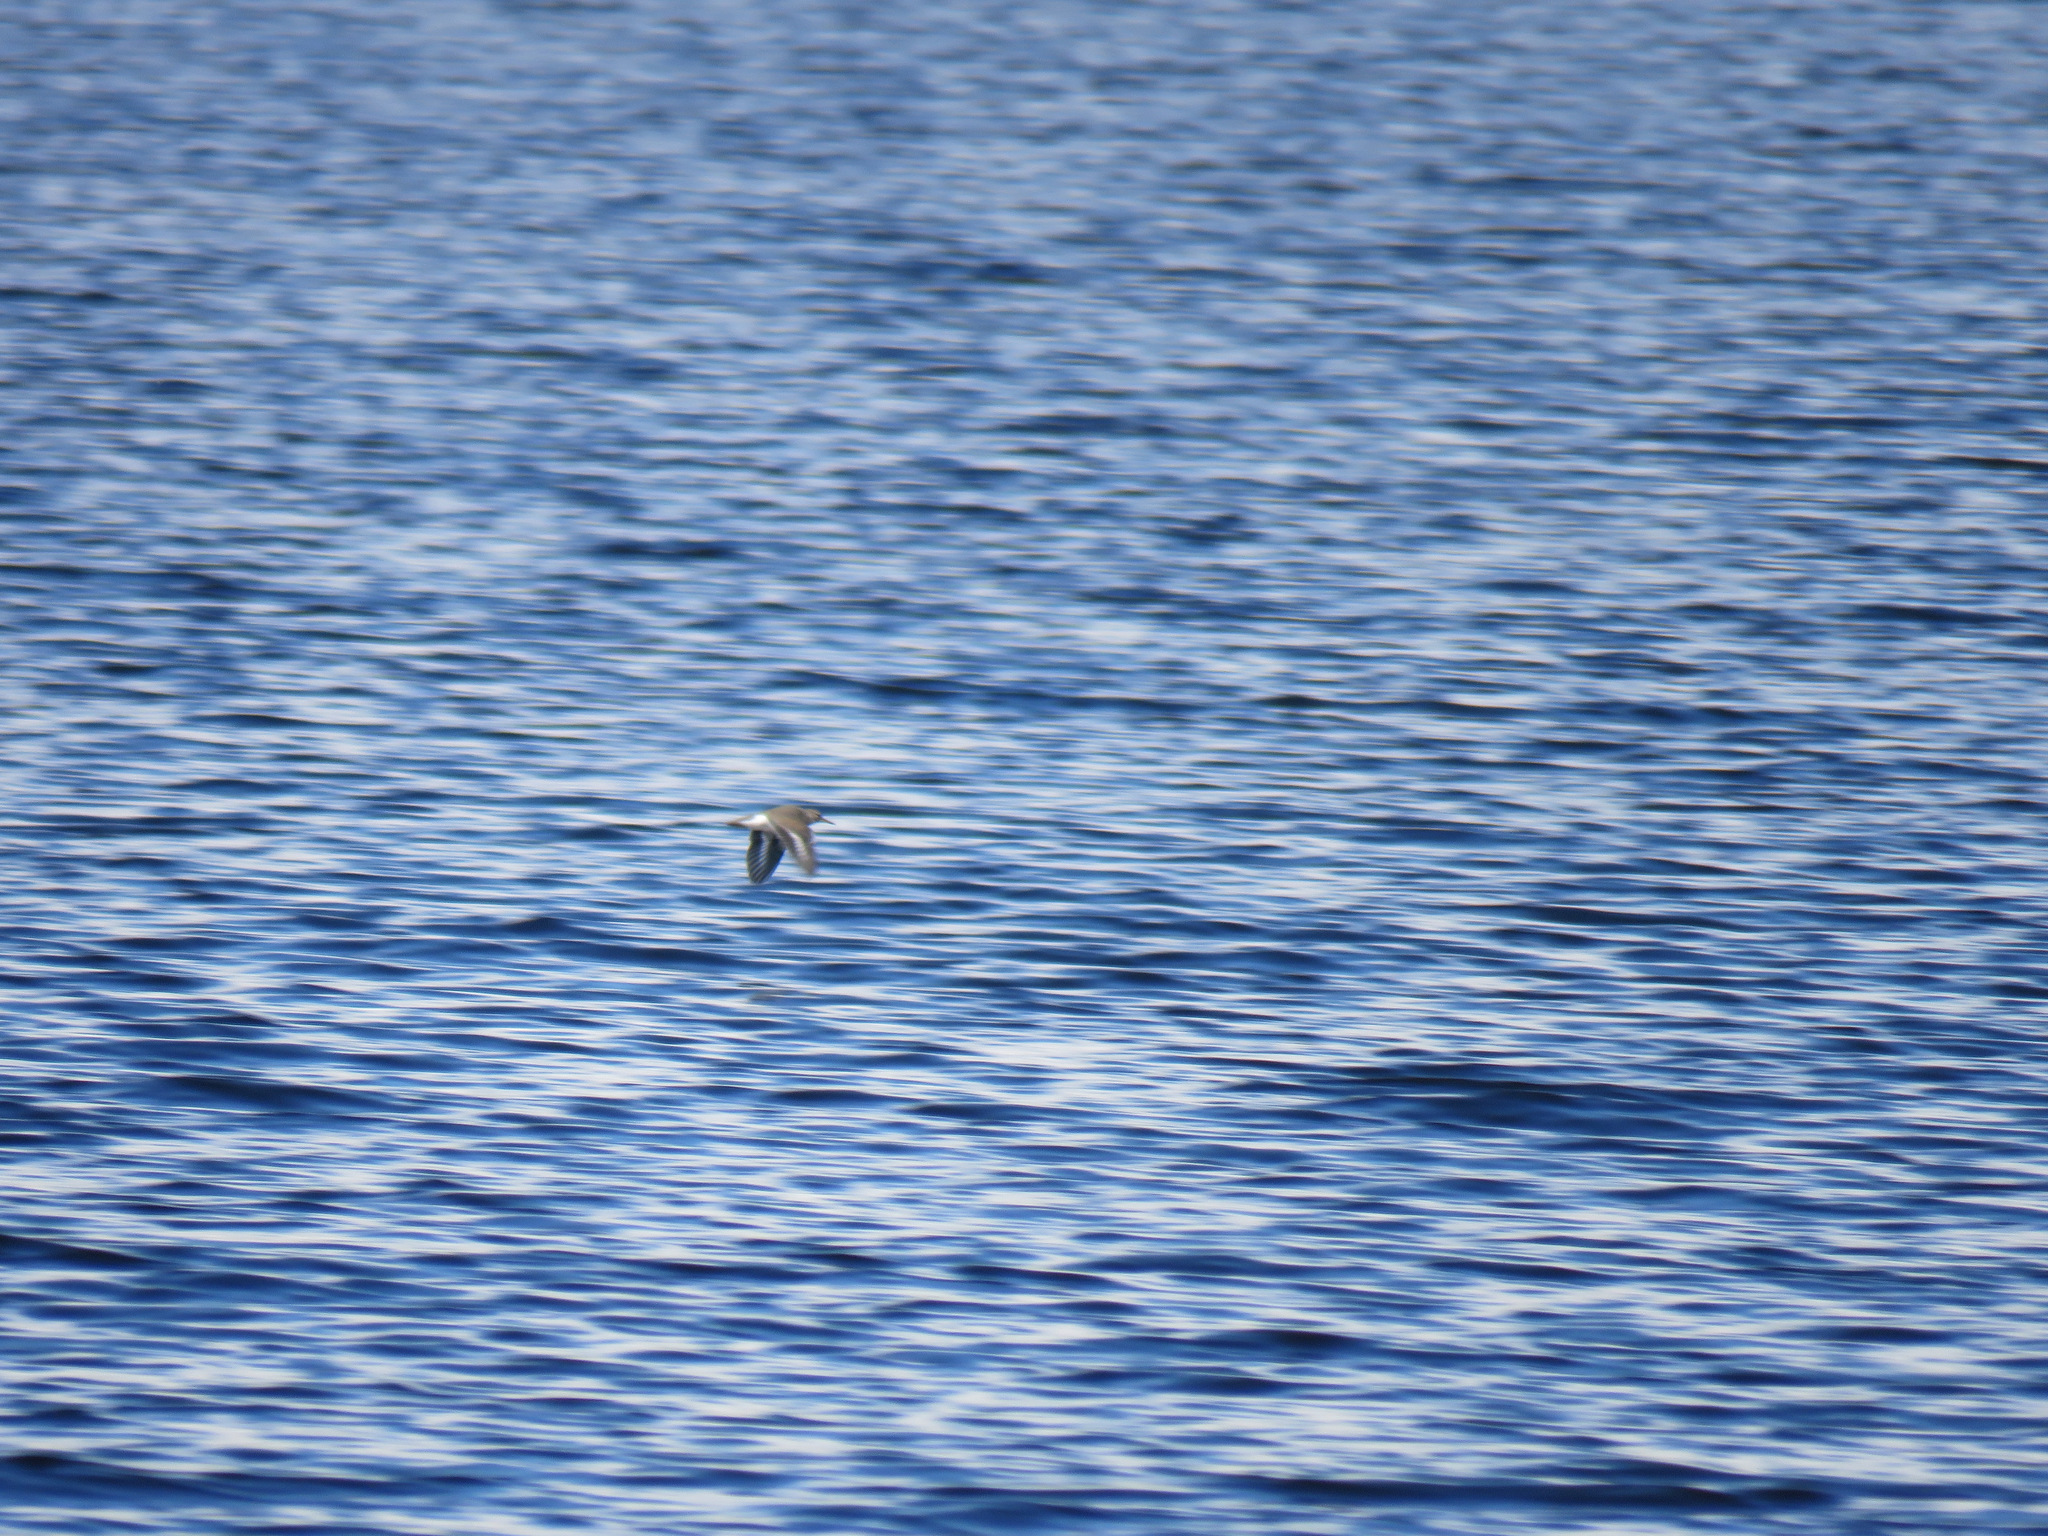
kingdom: Animalia
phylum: Chordata
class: Aves
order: Charadriiformes
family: Scolopacidae
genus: Actitis
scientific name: Actitis macularius
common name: Spotted sandpiper
